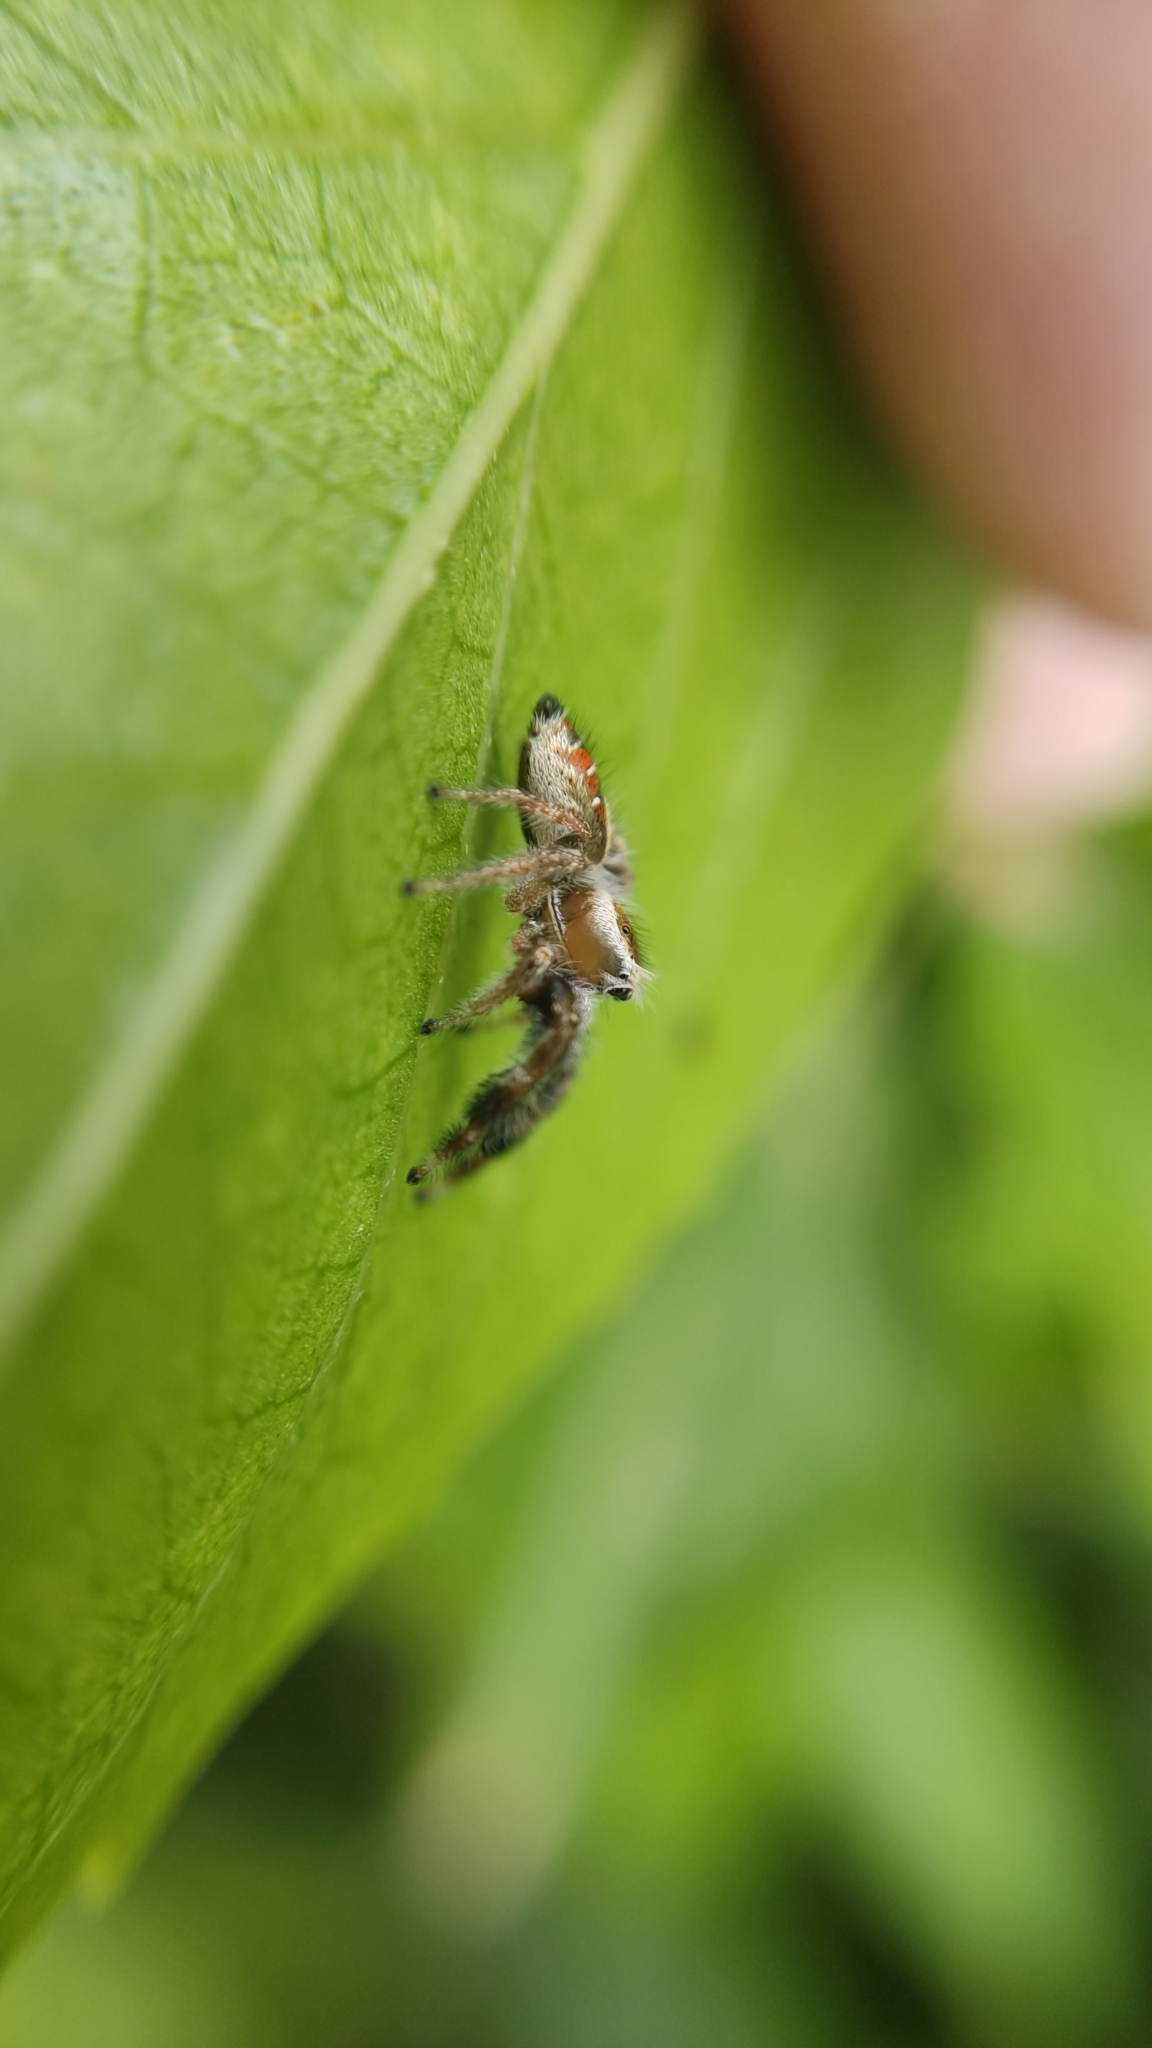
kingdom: Animalia
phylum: Arthropoda
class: Arachnida
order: Araneae
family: Salticidae
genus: Thyene
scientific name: Thyene imperialis
